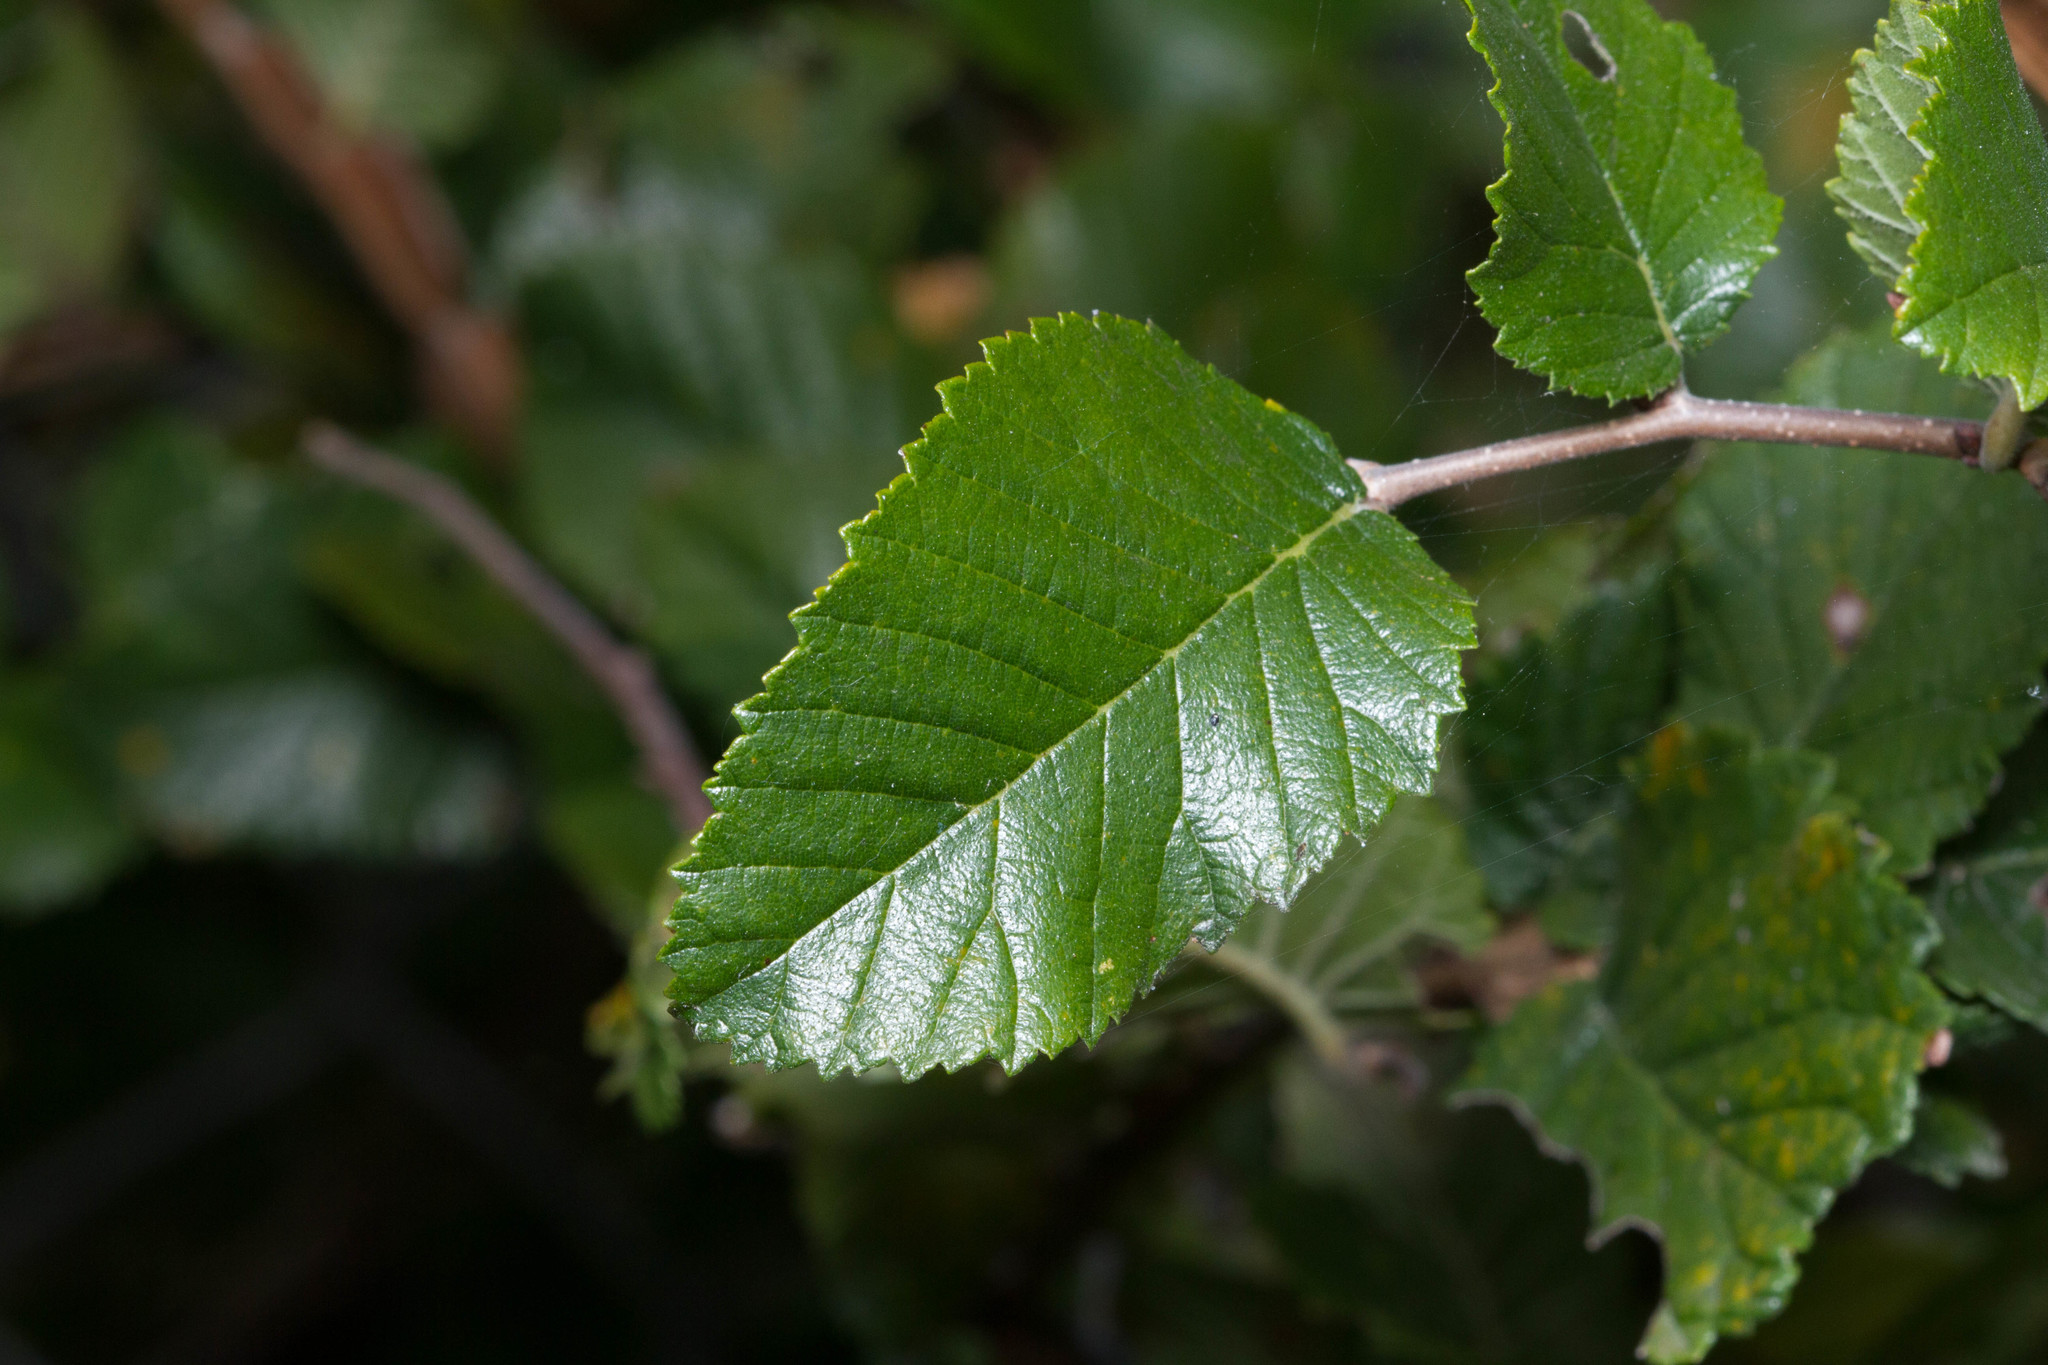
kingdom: Plantae
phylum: Tracheophyta
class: Magnoliopsida
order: Rosales
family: Ulmaceae
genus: Ulmus
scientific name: Ulmus crassifolia
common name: Basket elm
